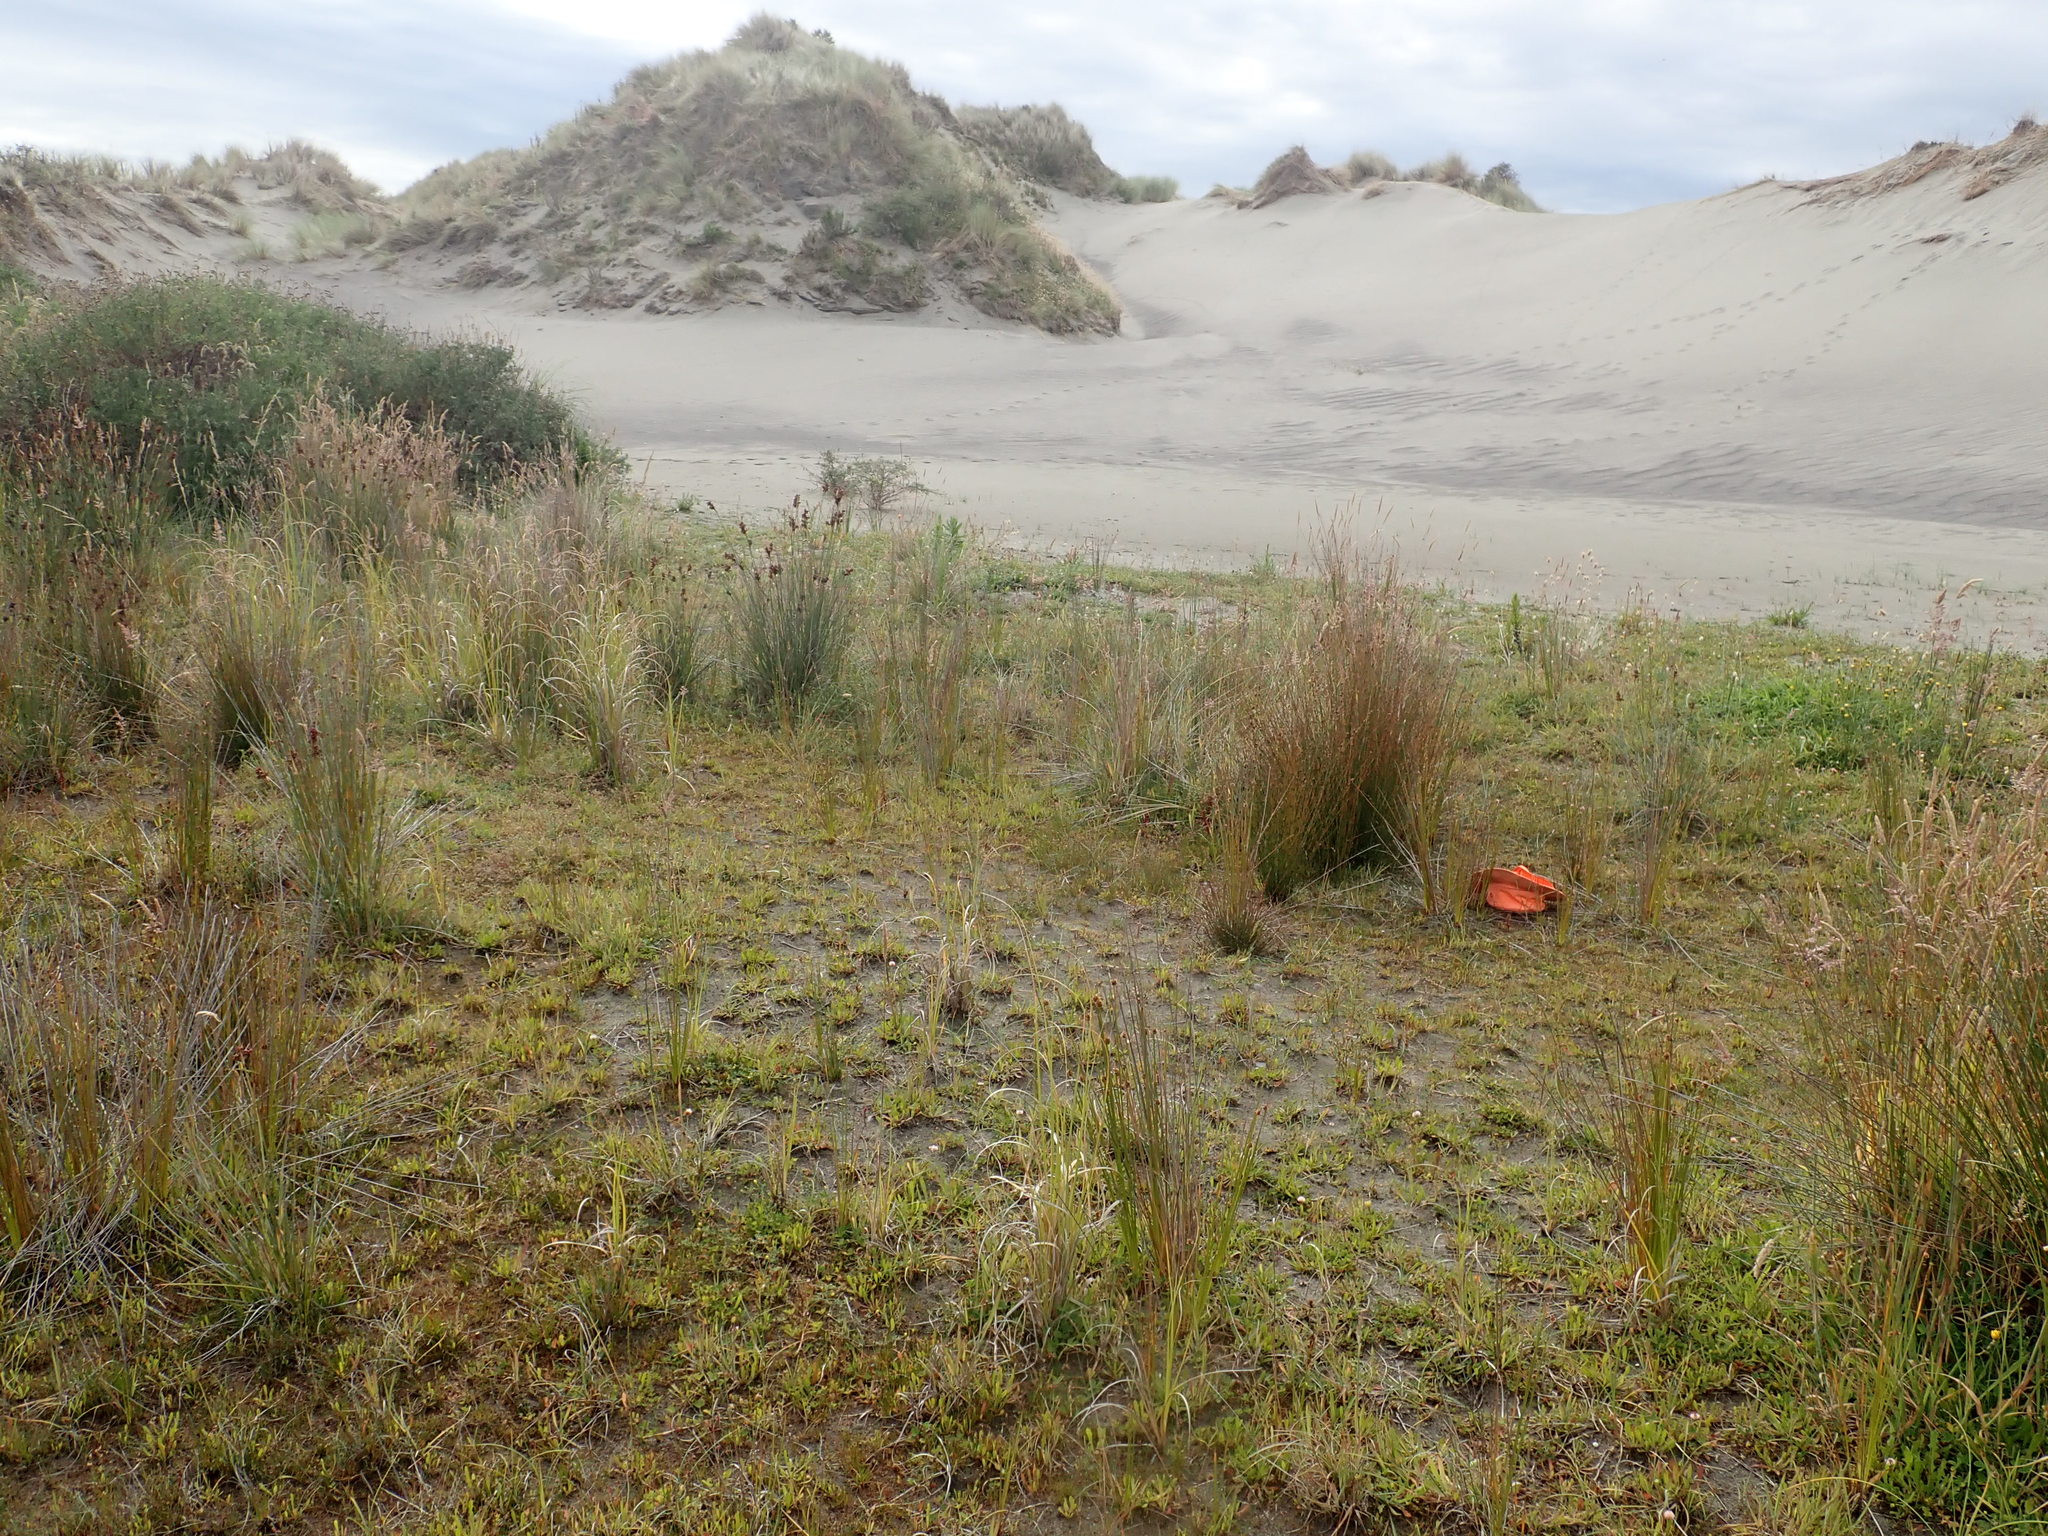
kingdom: Plantae
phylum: Tracheophyta
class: Liliopsida
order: Poales
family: Restionaceae
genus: Apodasmia
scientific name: Apodasmia similis
